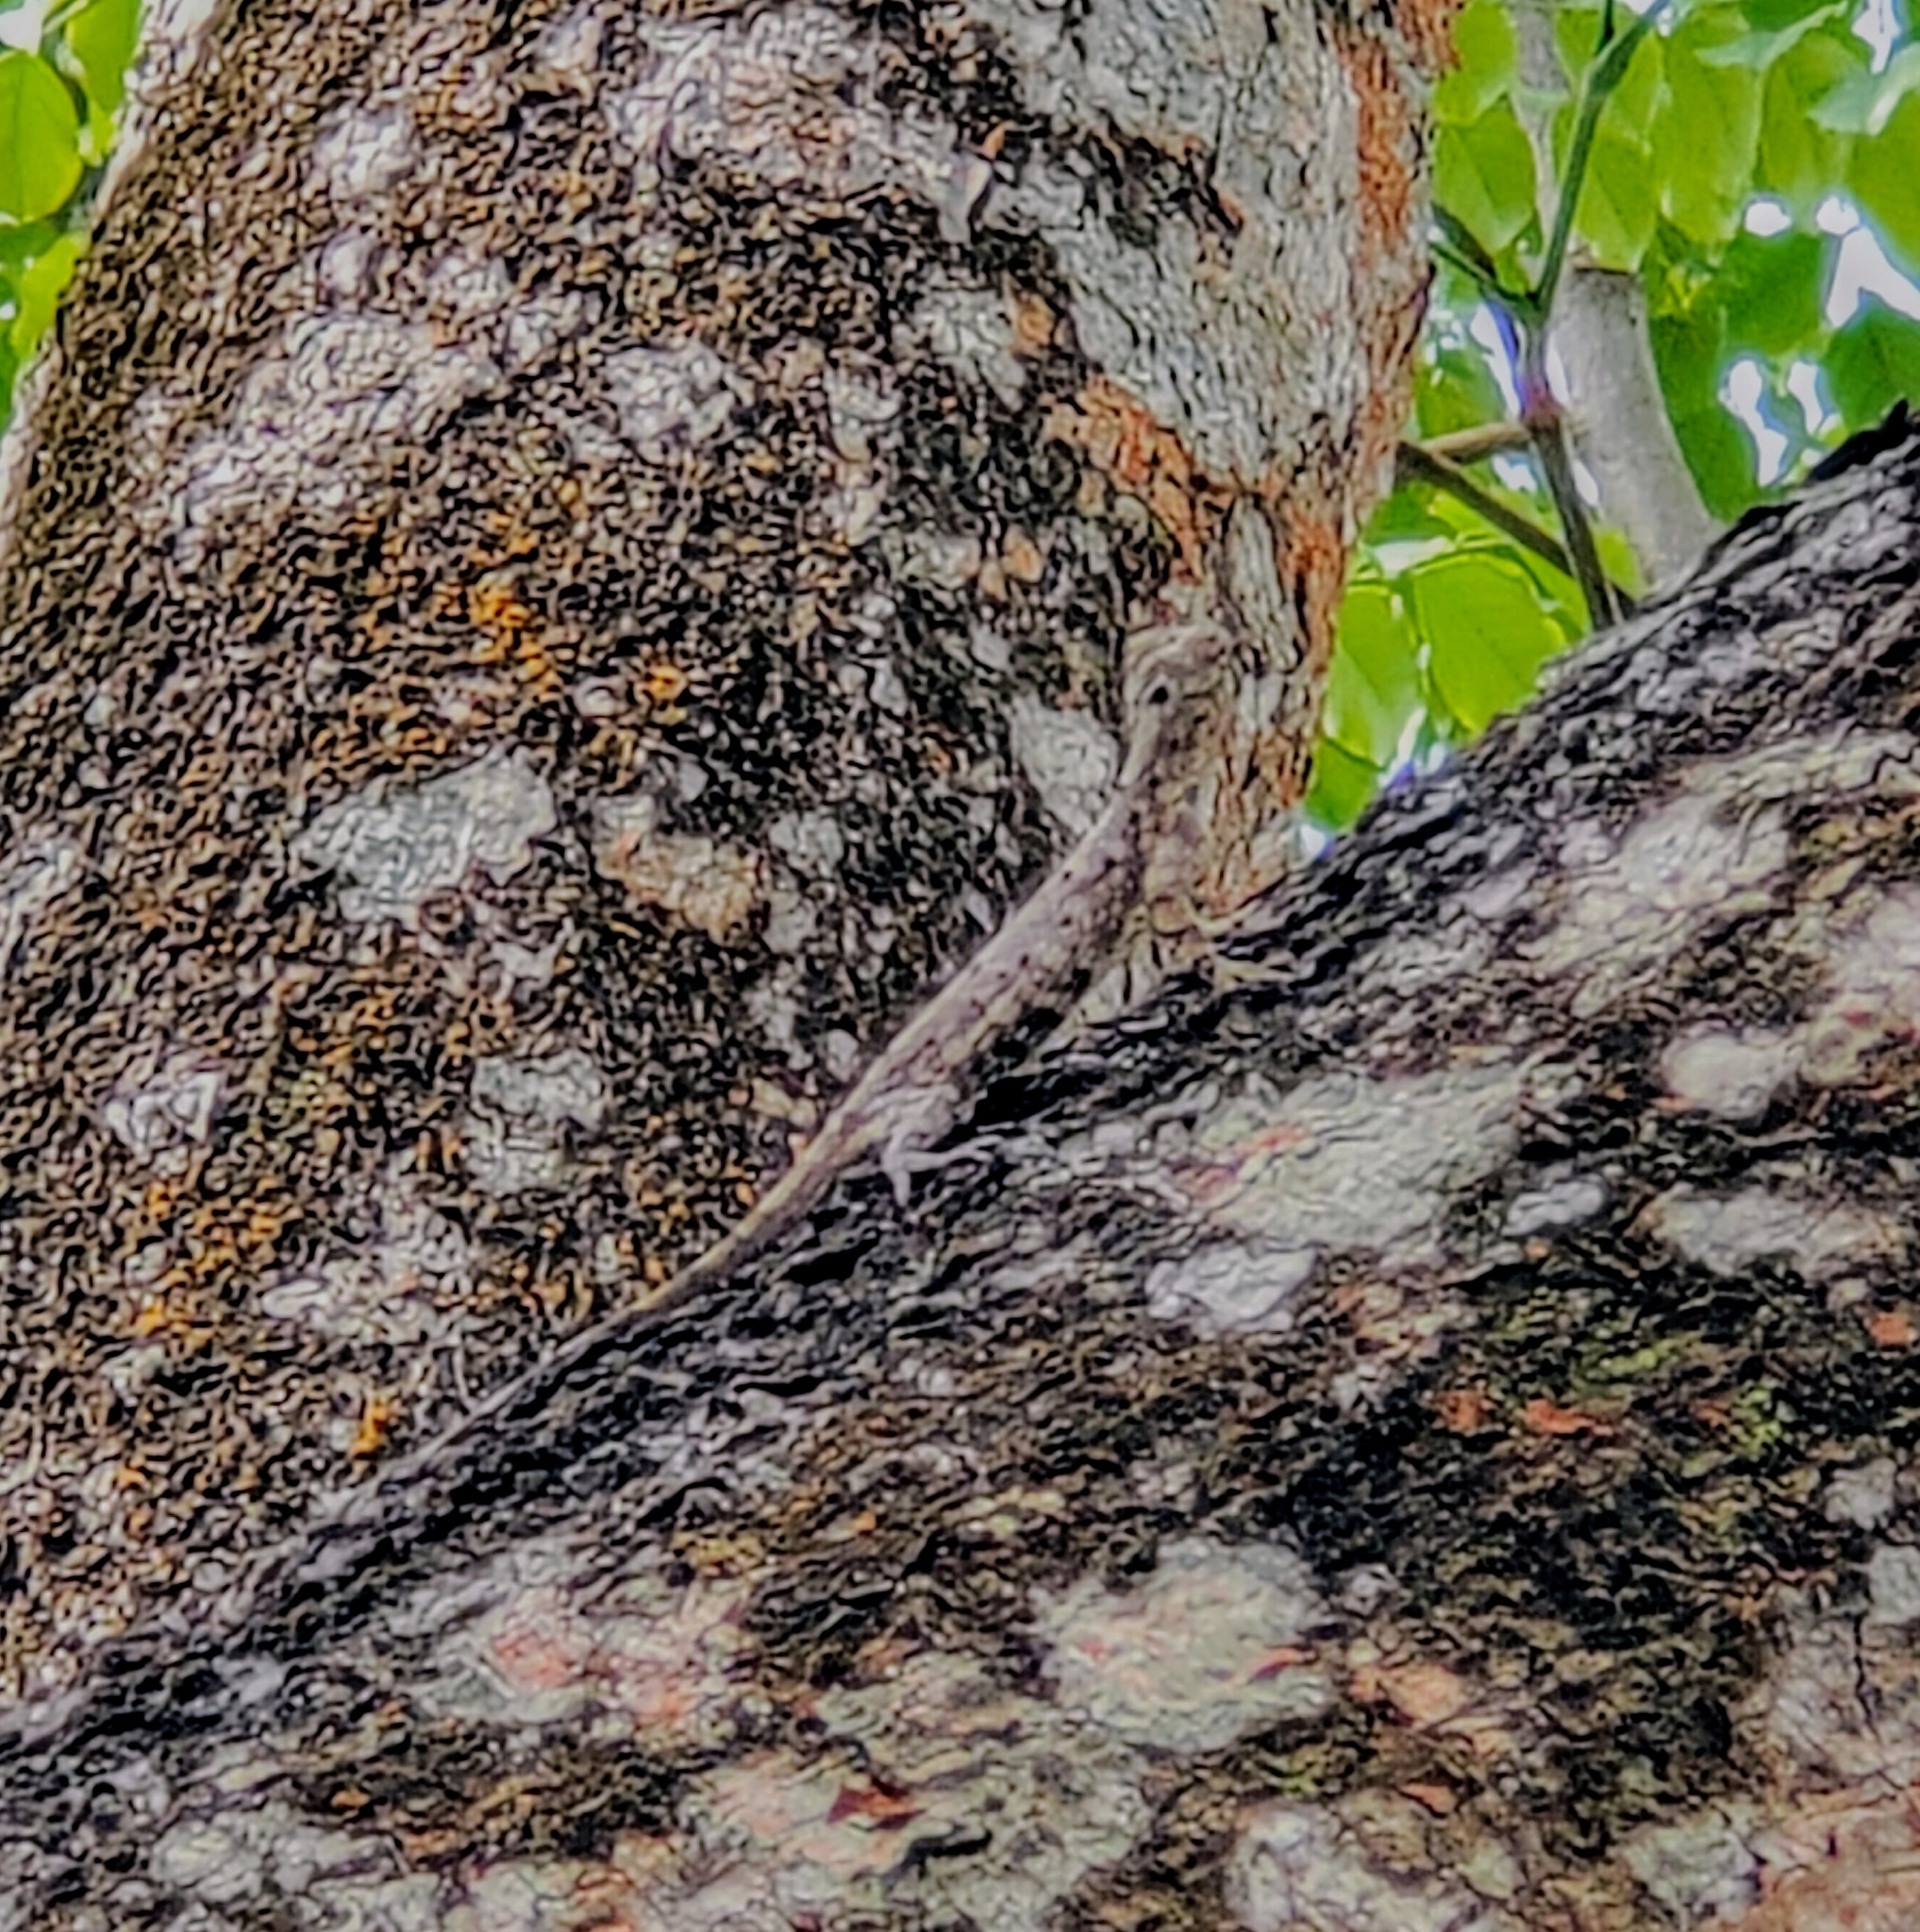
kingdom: Animalia
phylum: Chordata
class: Squamata
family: Agamidae
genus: Draco
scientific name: Draco sumatranus
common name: Common gliding lizard
